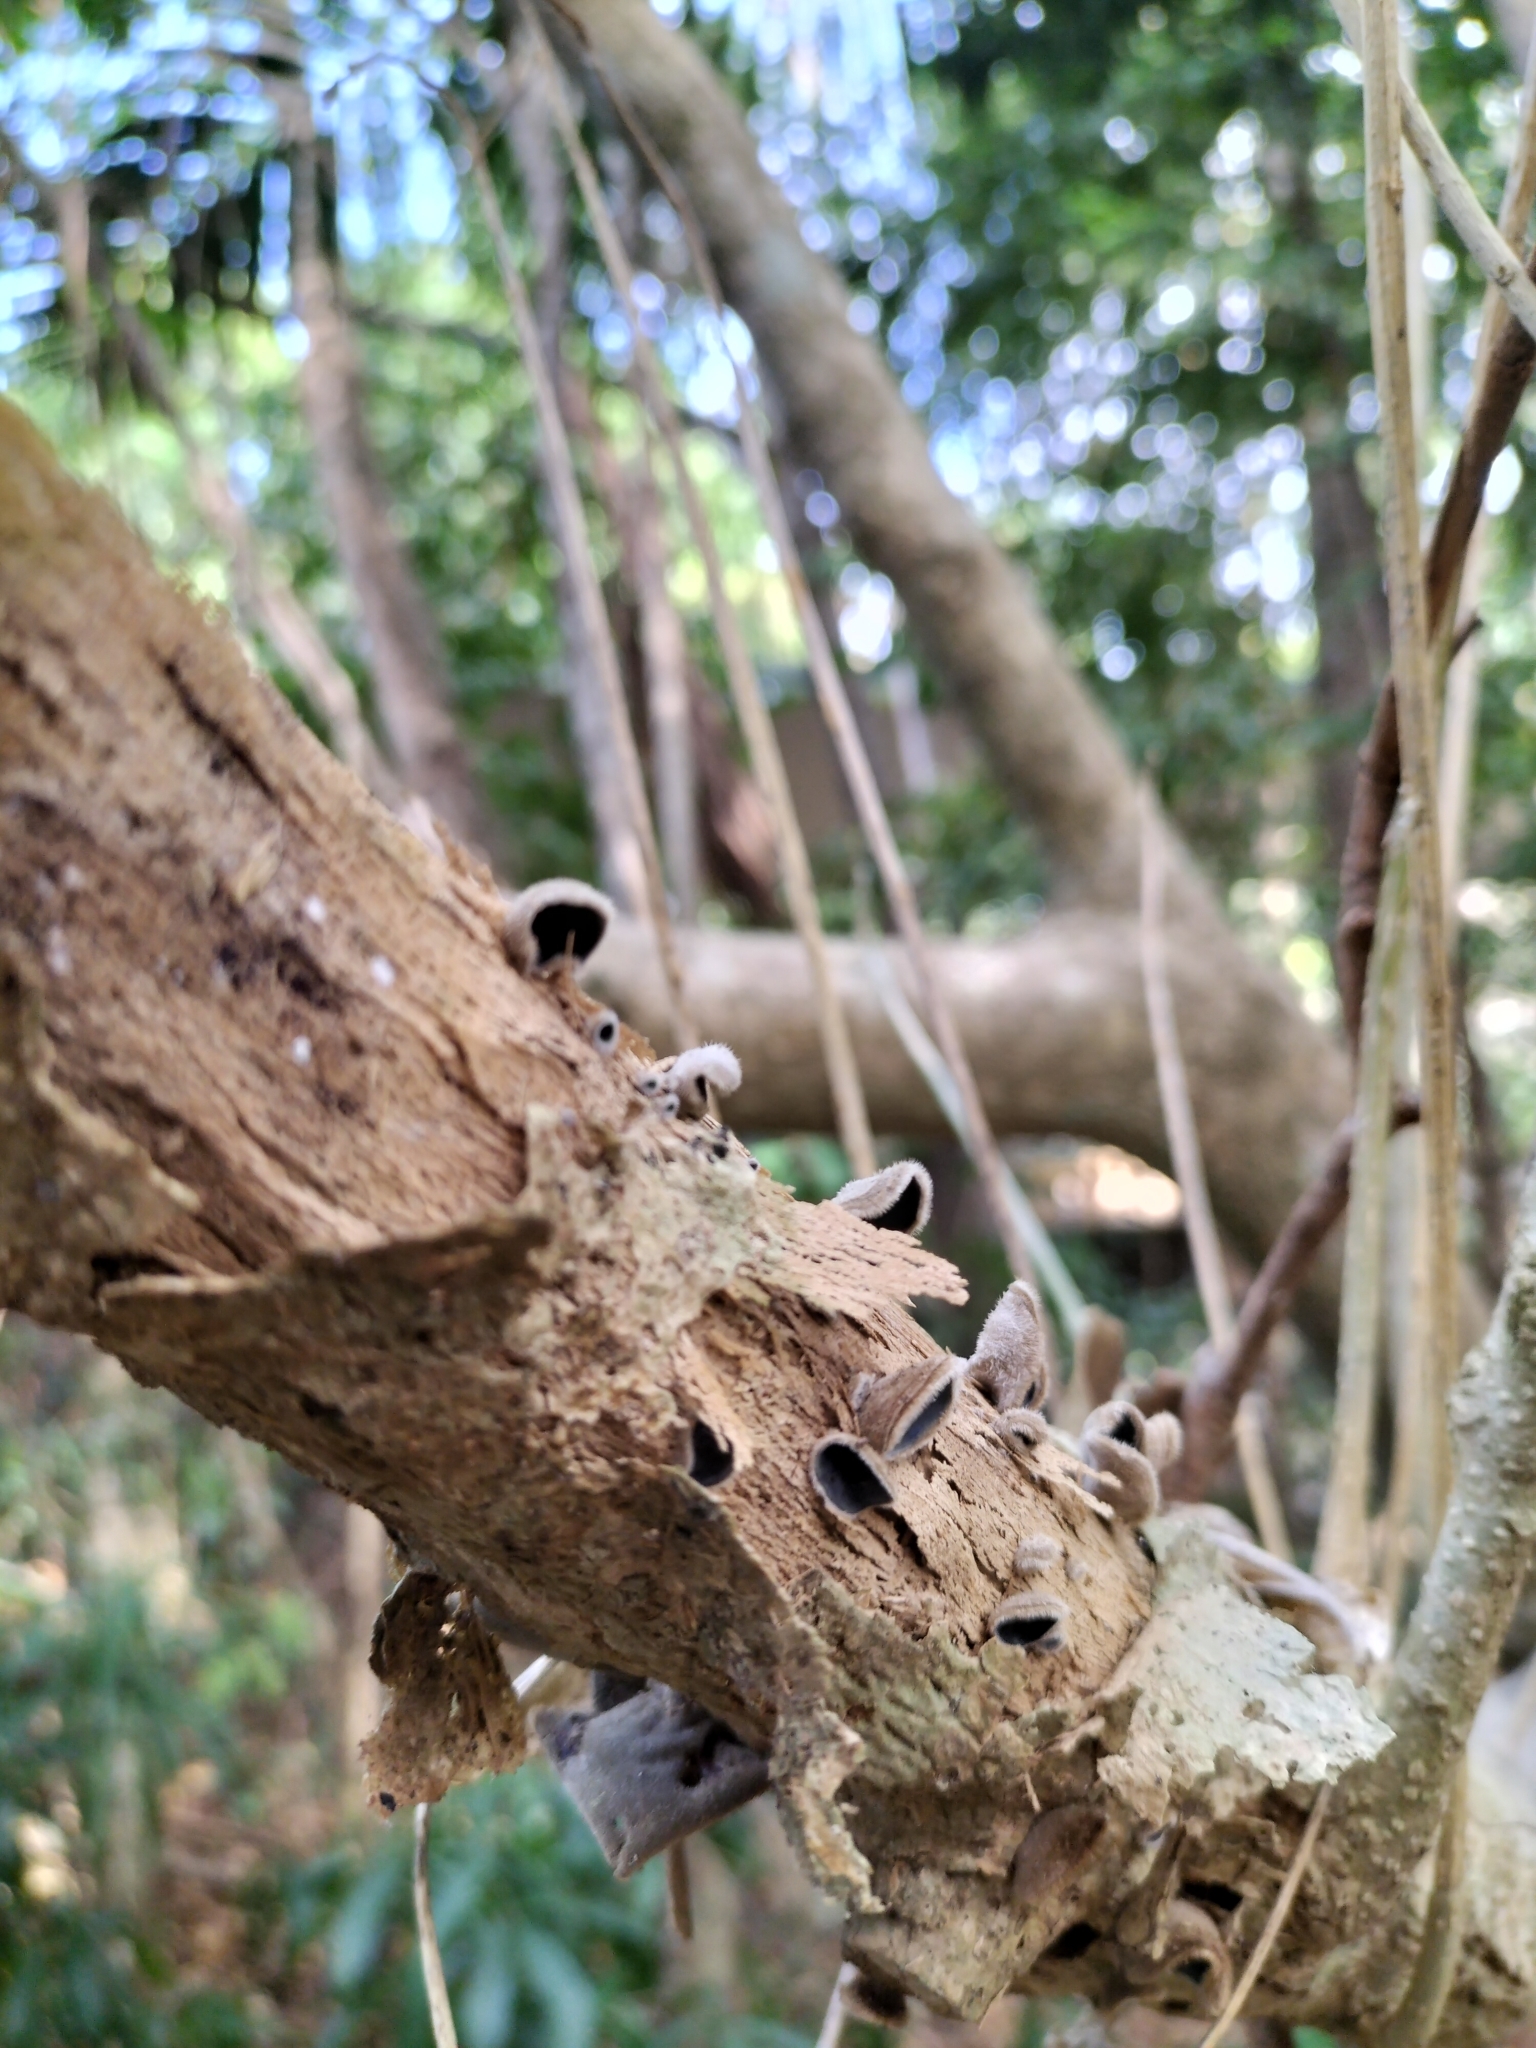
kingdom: Fungi
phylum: Basidiomycota
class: Agaricomycetes
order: Auriculariales
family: Auriculariaceae
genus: Auricularia
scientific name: Auricularia cornea
